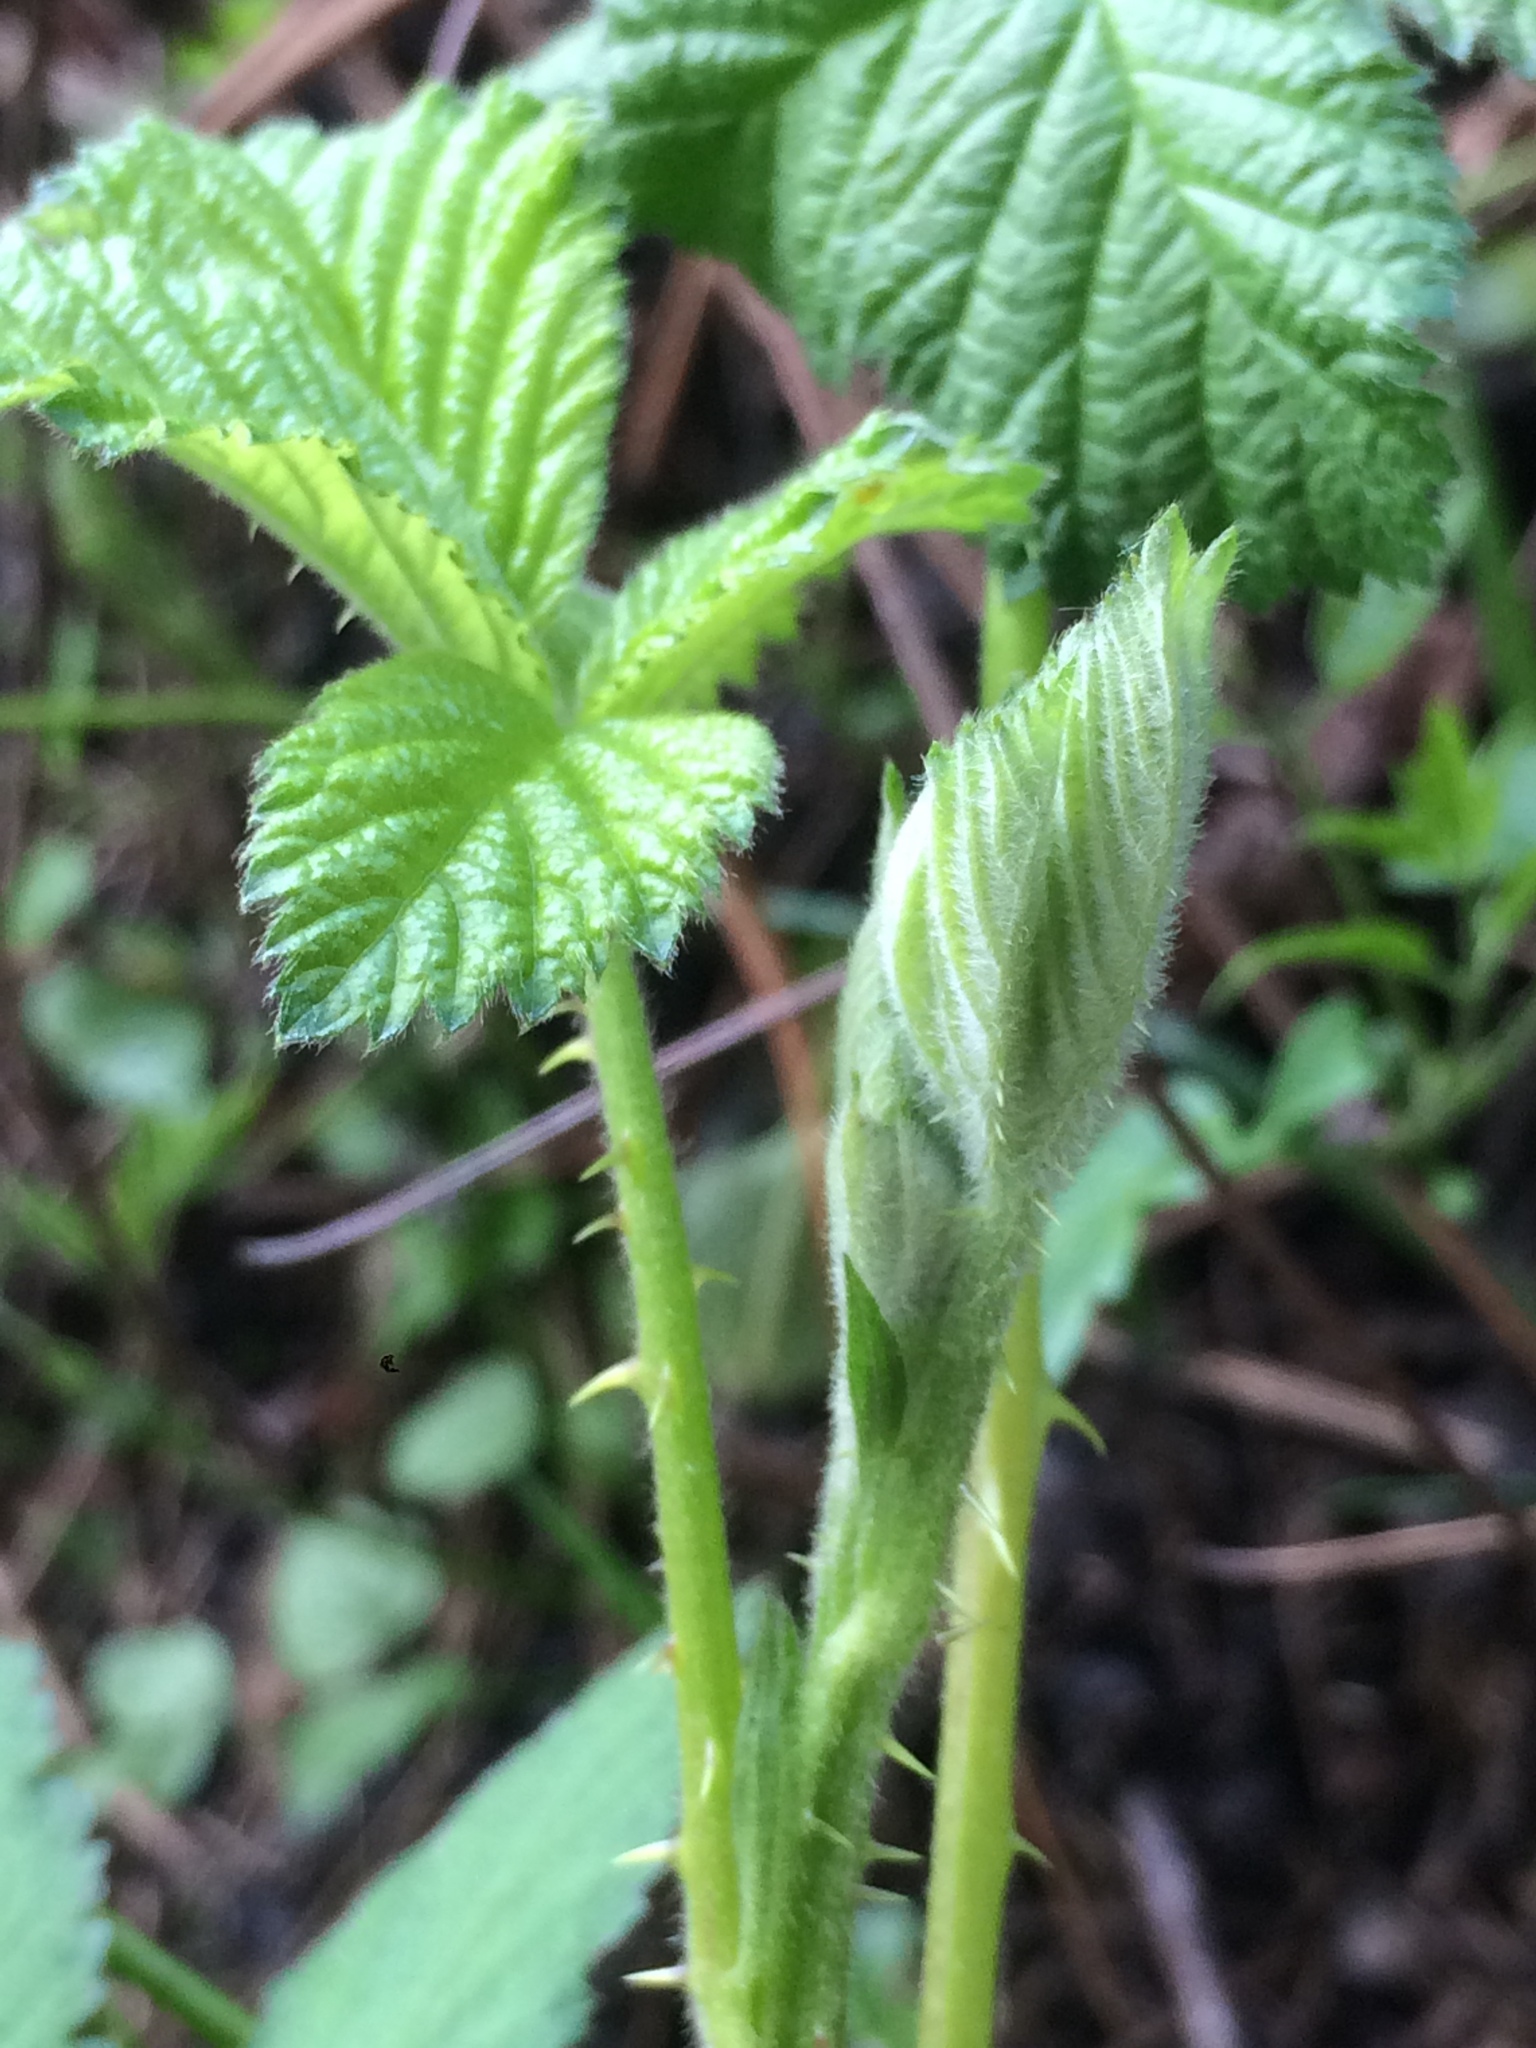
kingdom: Plantae
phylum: Tracheophyta
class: Magnoliopsida
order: Rosales
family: Rosaceae
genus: Rubus
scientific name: Rubus bifrons
